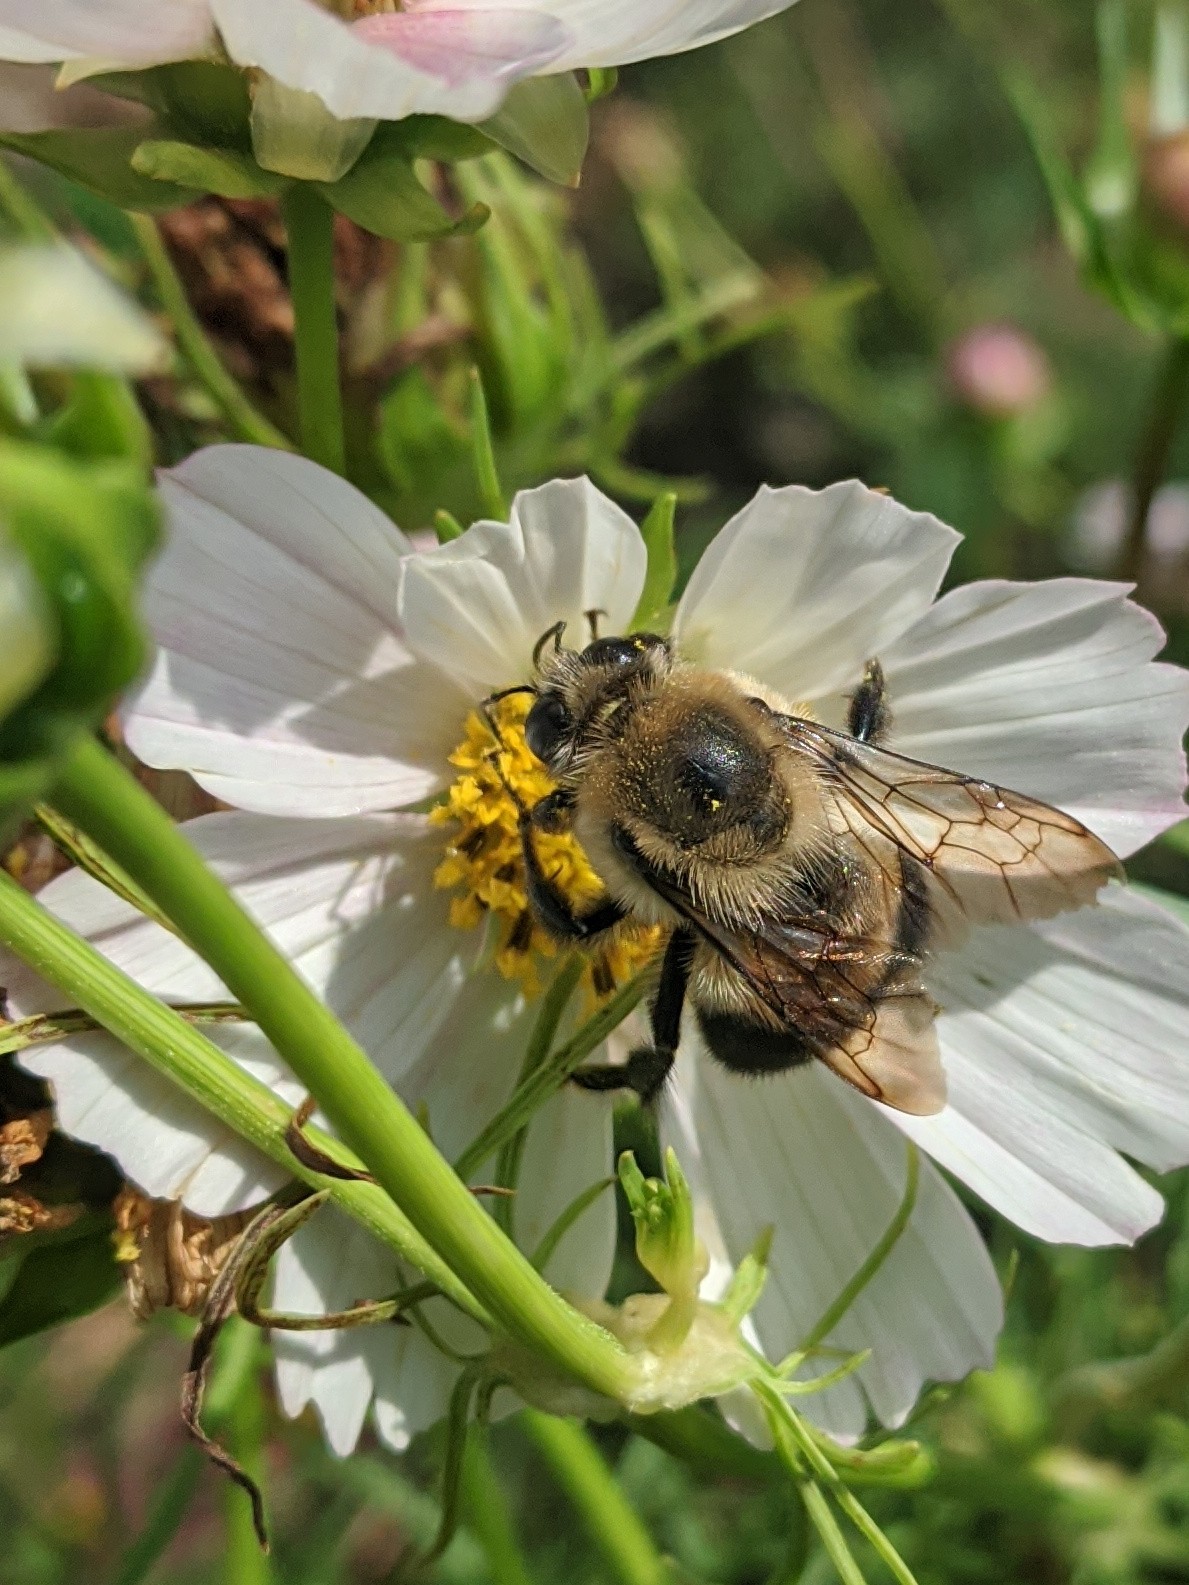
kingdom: Animalia
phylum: Arthropoda
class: Insecta
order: Hymenoptera
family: Apidae
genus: Bombus
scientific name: Bombus griseocollis
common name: Brown-belted bumble bee
